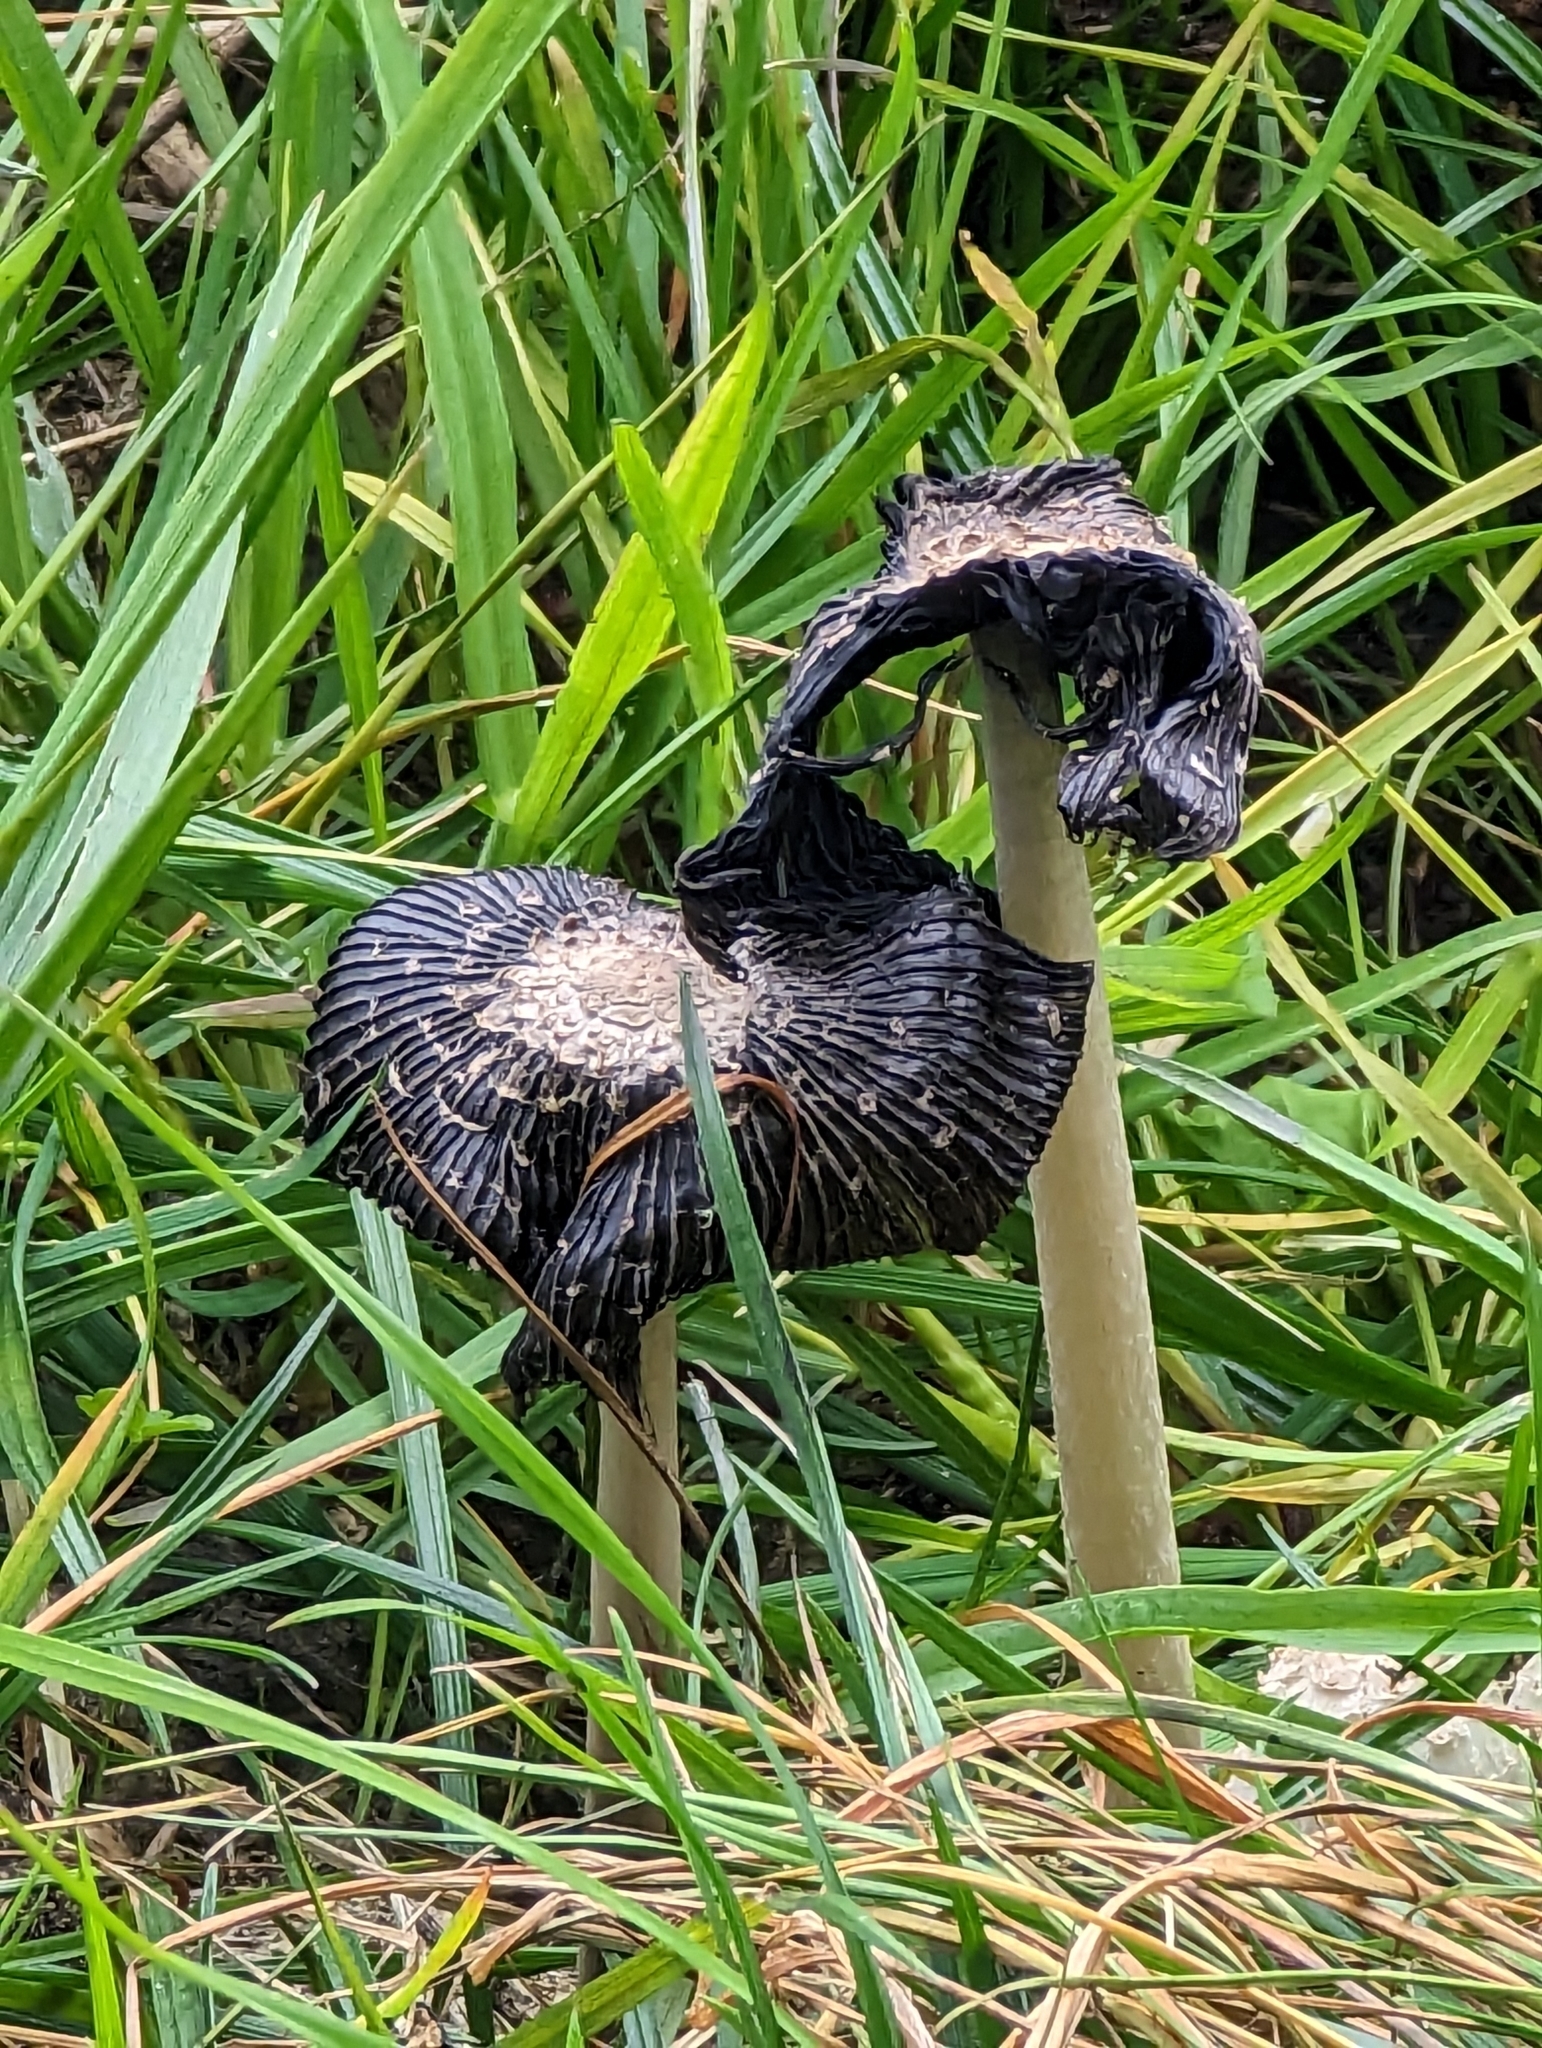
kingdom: Fungi
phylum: Basidiomycota
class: Agaricomycetes
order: Agaricales
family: Agaricaceae
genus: Coprinus
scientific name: Coprinus comatus
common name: Lawyer's wig
